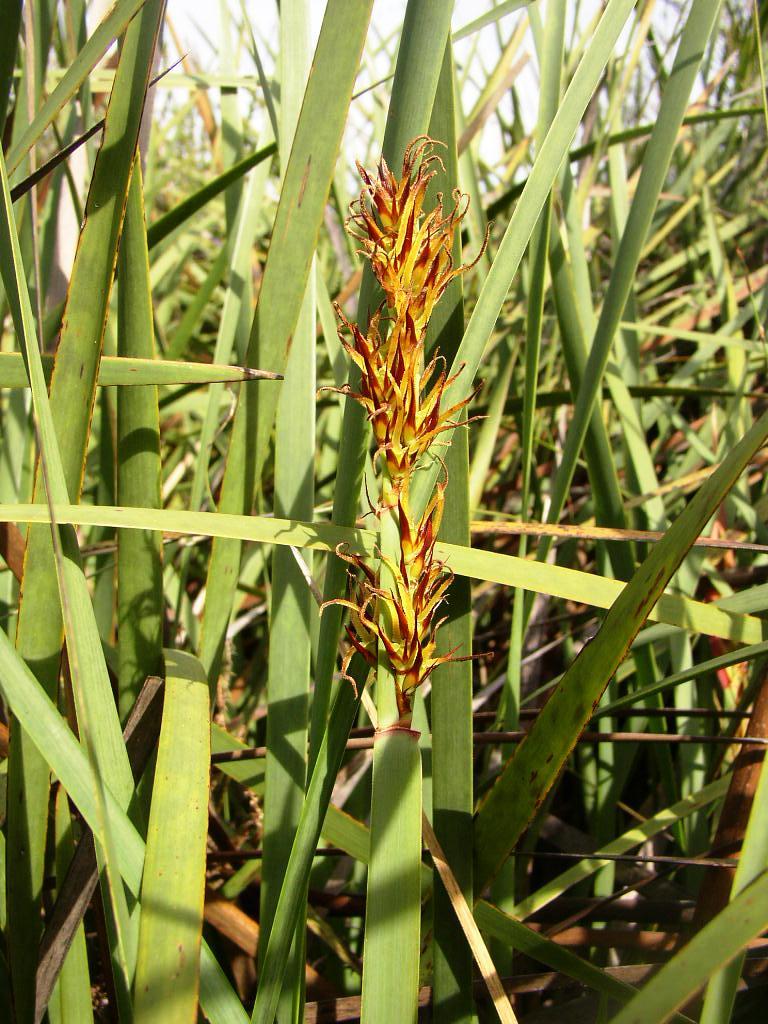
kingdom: Plantae
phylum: Tracheophyta
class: Liliopsida
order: Poales
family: Restionaceae
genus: Anarthria
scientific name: Anarthria scabra
